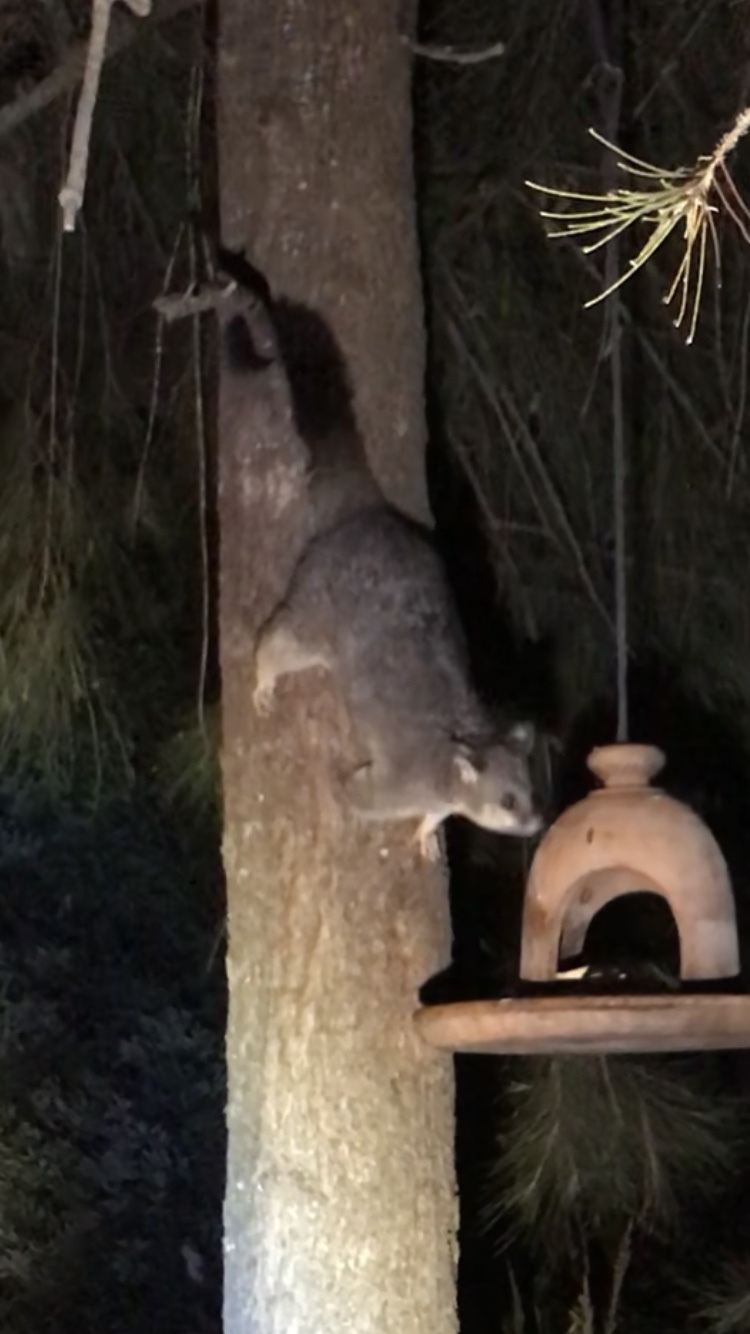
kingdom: Animalia
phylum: Chordata
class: Mammalia
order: Diprotodontia
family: Phalangeridae
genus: Trichosurus
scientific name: Trichosurus vulpecula
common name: Common brushtail
